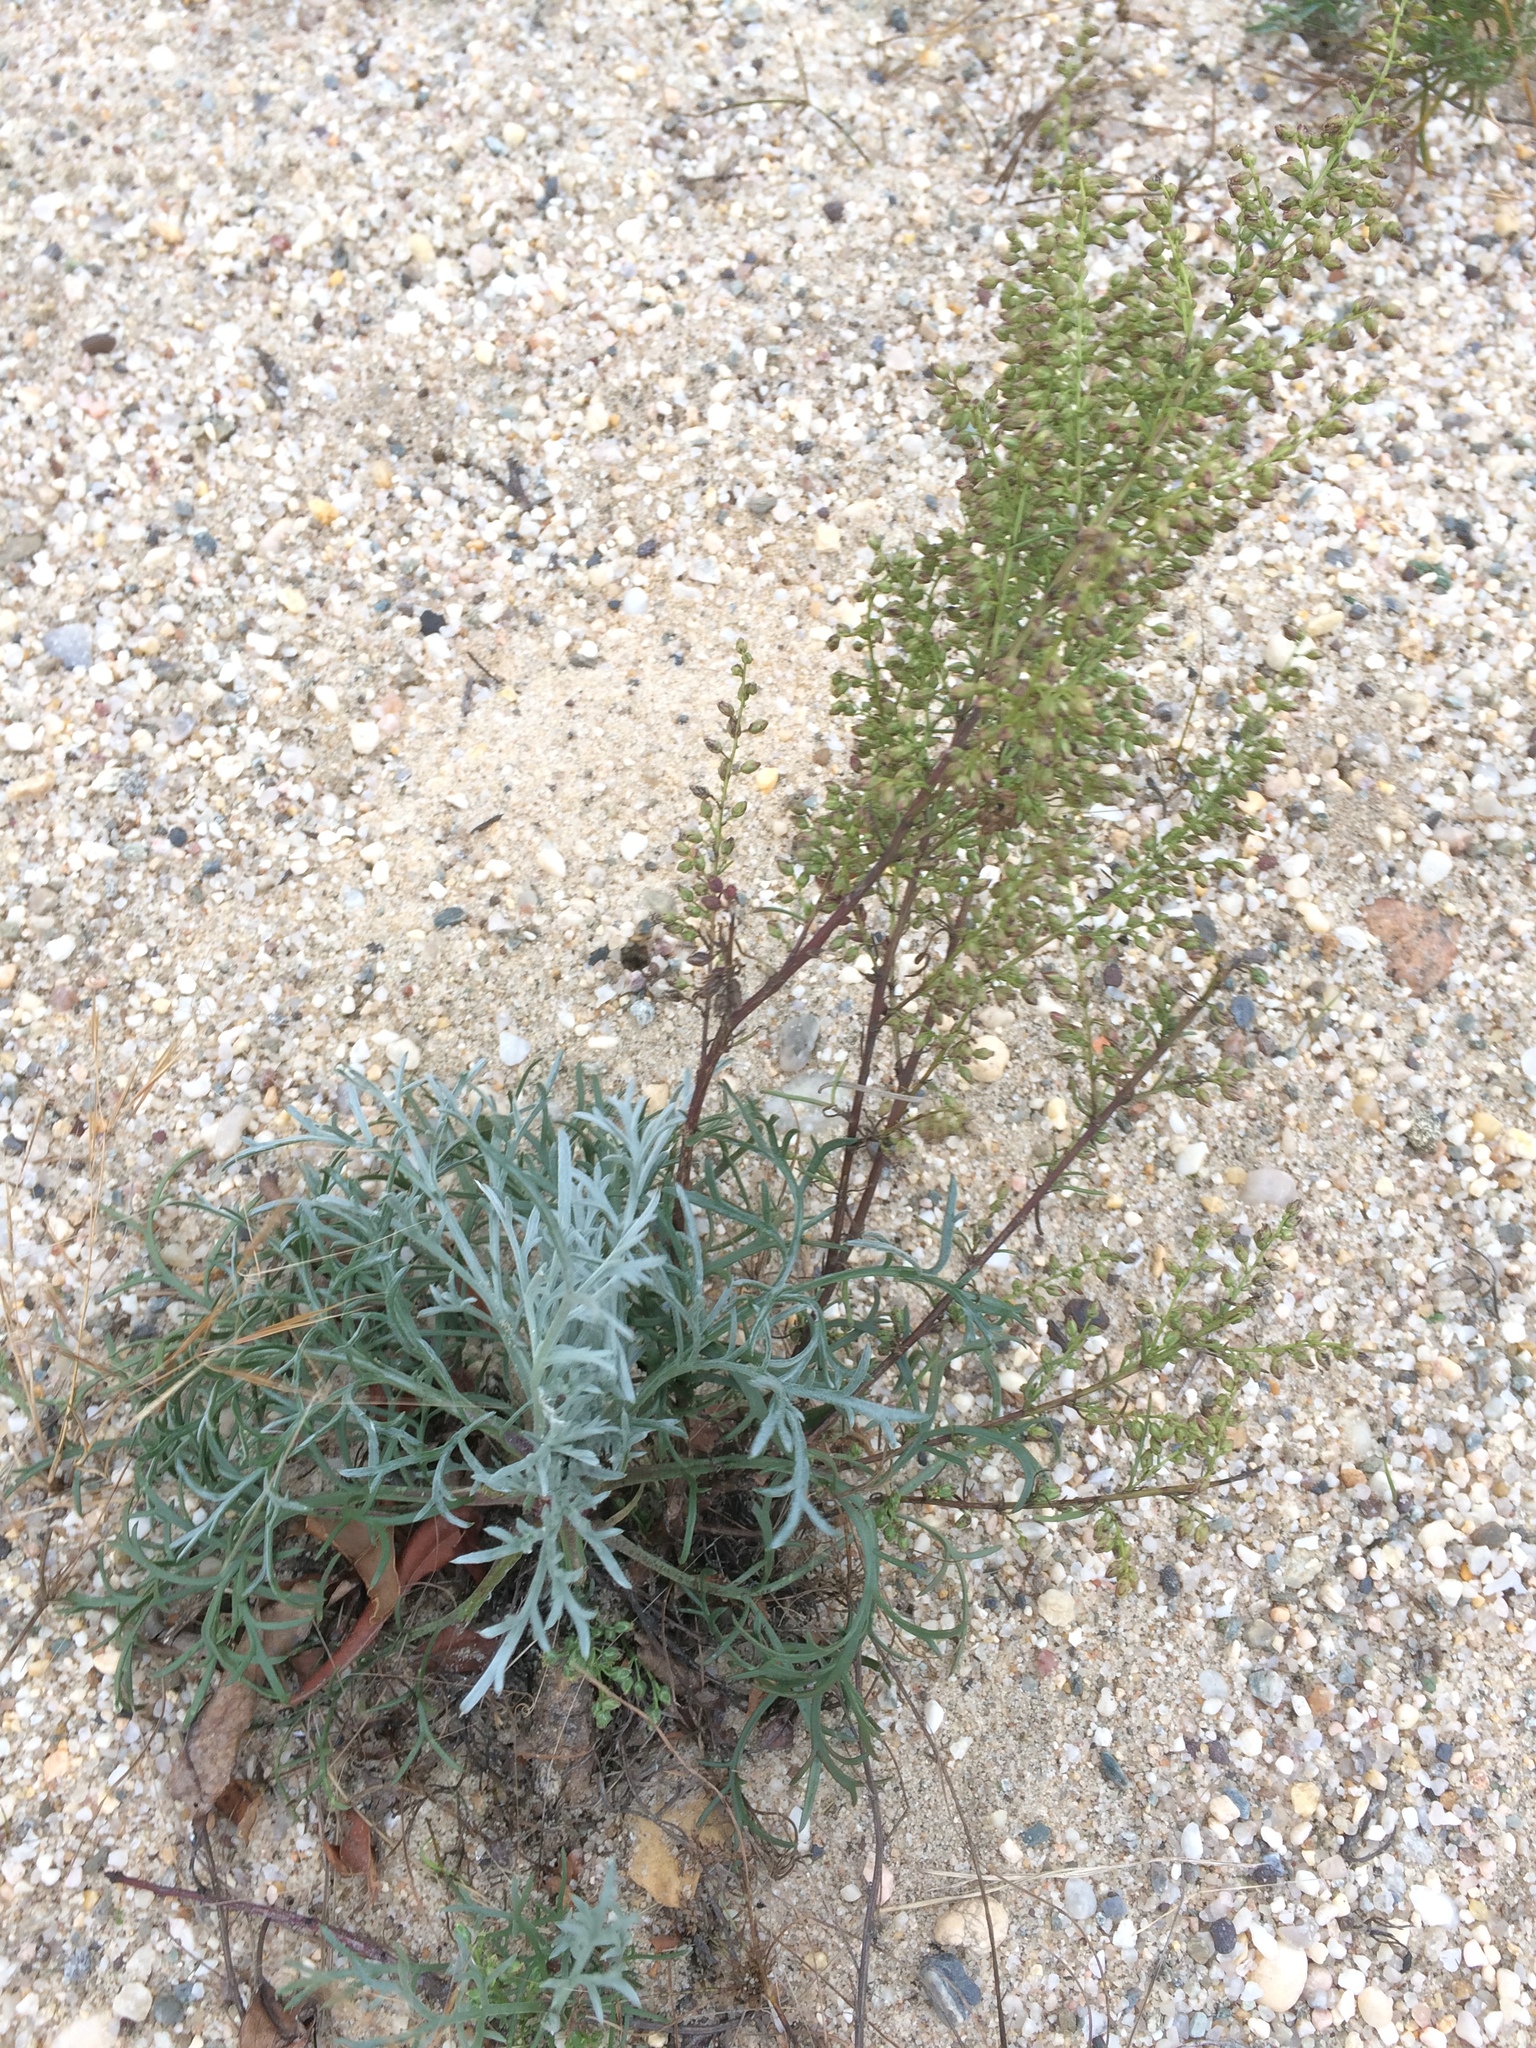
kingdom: Plantae
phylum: Tracheophyta
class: Magnoliopsida
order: Asterales
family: Asteraceae
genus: Artemisia
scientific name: Artemisia campestris
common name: Field wormwood
